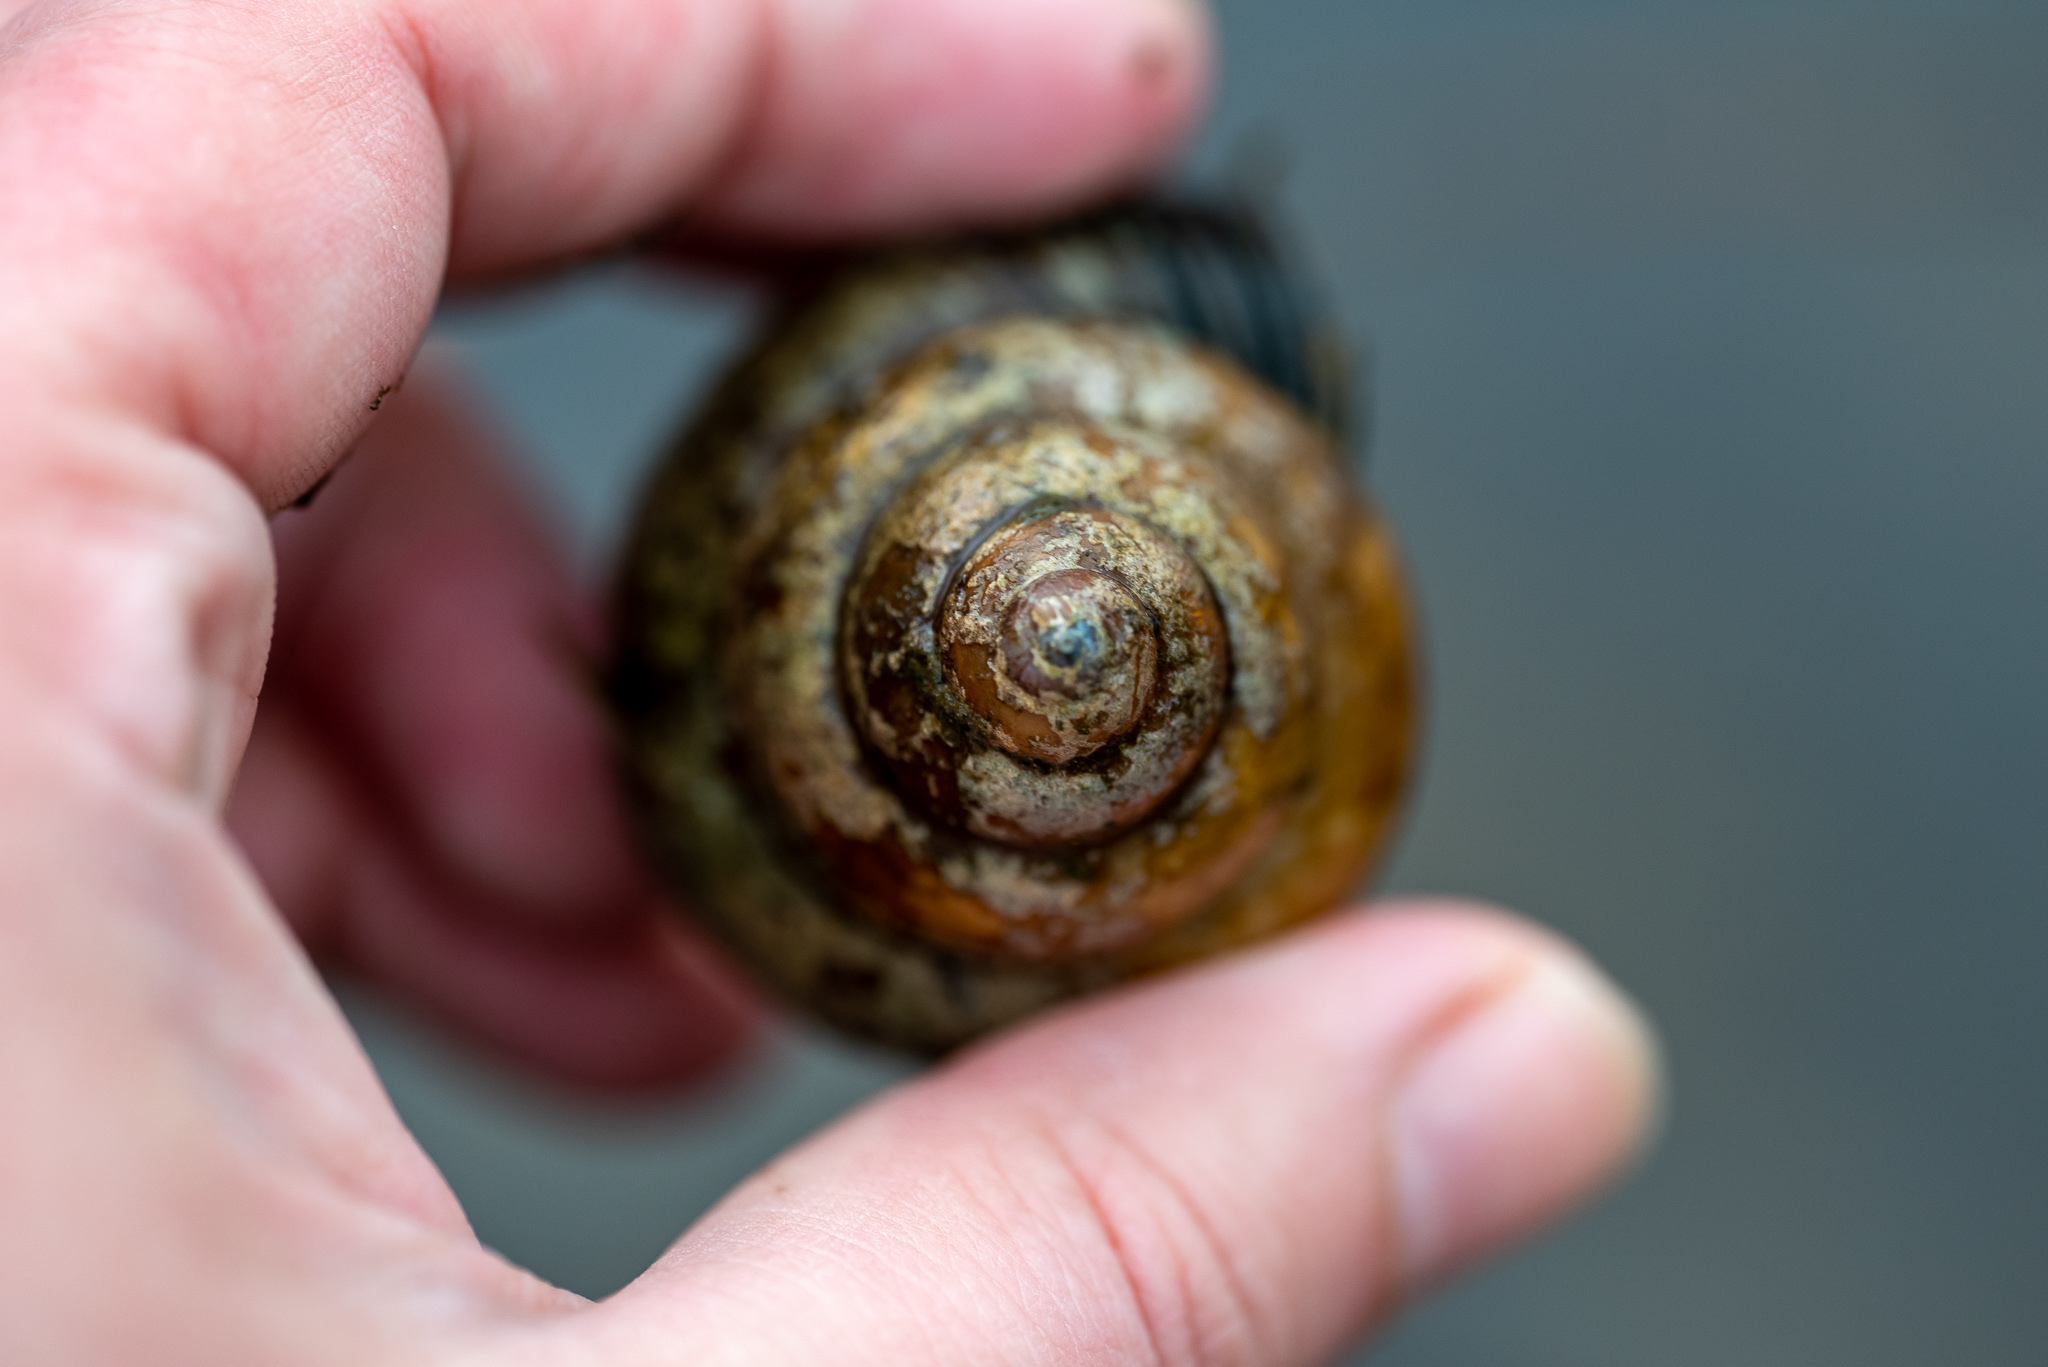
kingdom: Animalia
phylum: Mollusca
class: Gastropoda
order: Architaenioglossa
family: Viviparidae
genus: Cipangopaludina
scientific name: Cipangopaludina chinensis
